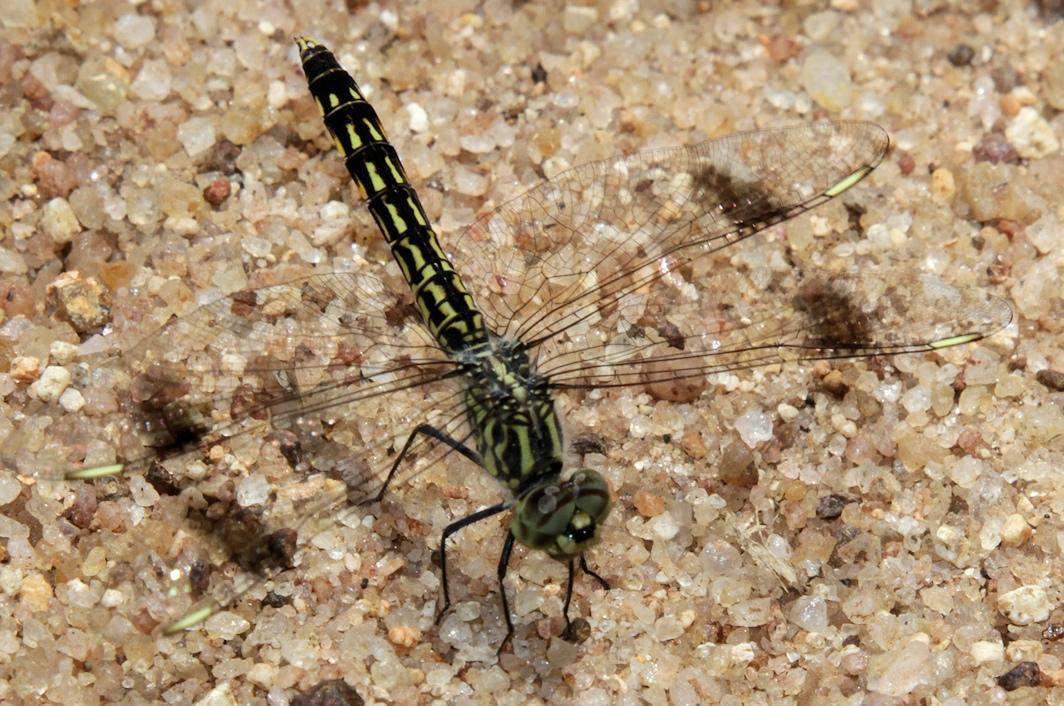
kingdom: Animalia
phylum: Arthropoda
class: Insecta
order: Odonata
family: Libellulidae
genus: Brachythemis
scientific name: Brachythemis leucosticta
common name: Banded groundling
